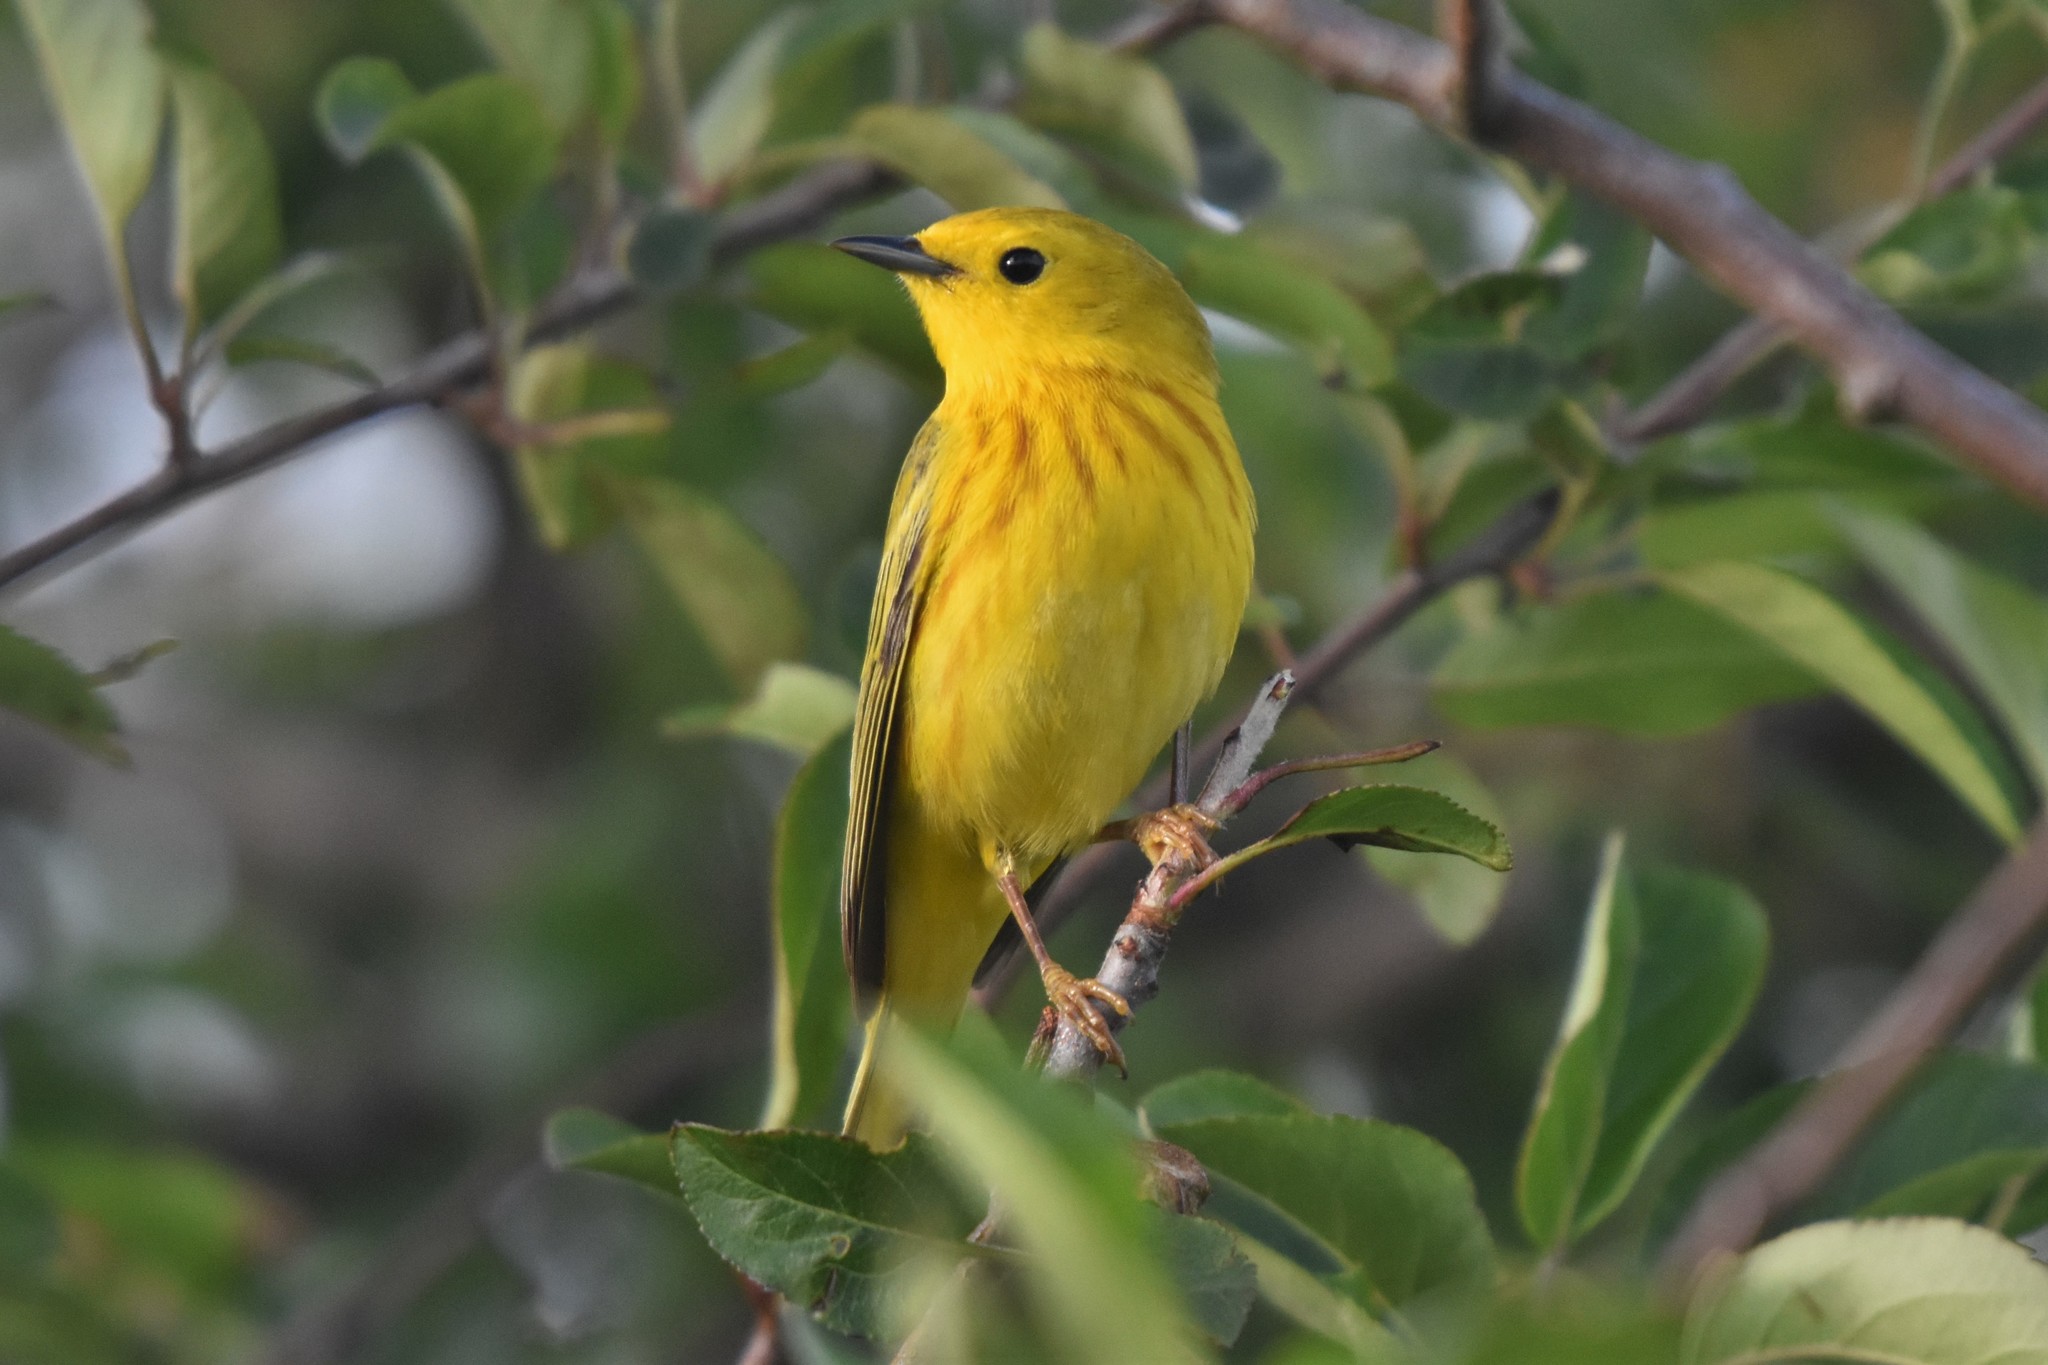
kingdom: Animalia
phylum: Chordata
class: Aves
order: Passeriformes
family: Parulidae
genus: Setophaga
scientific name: Setophaga petechia
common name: Yellow warbler
